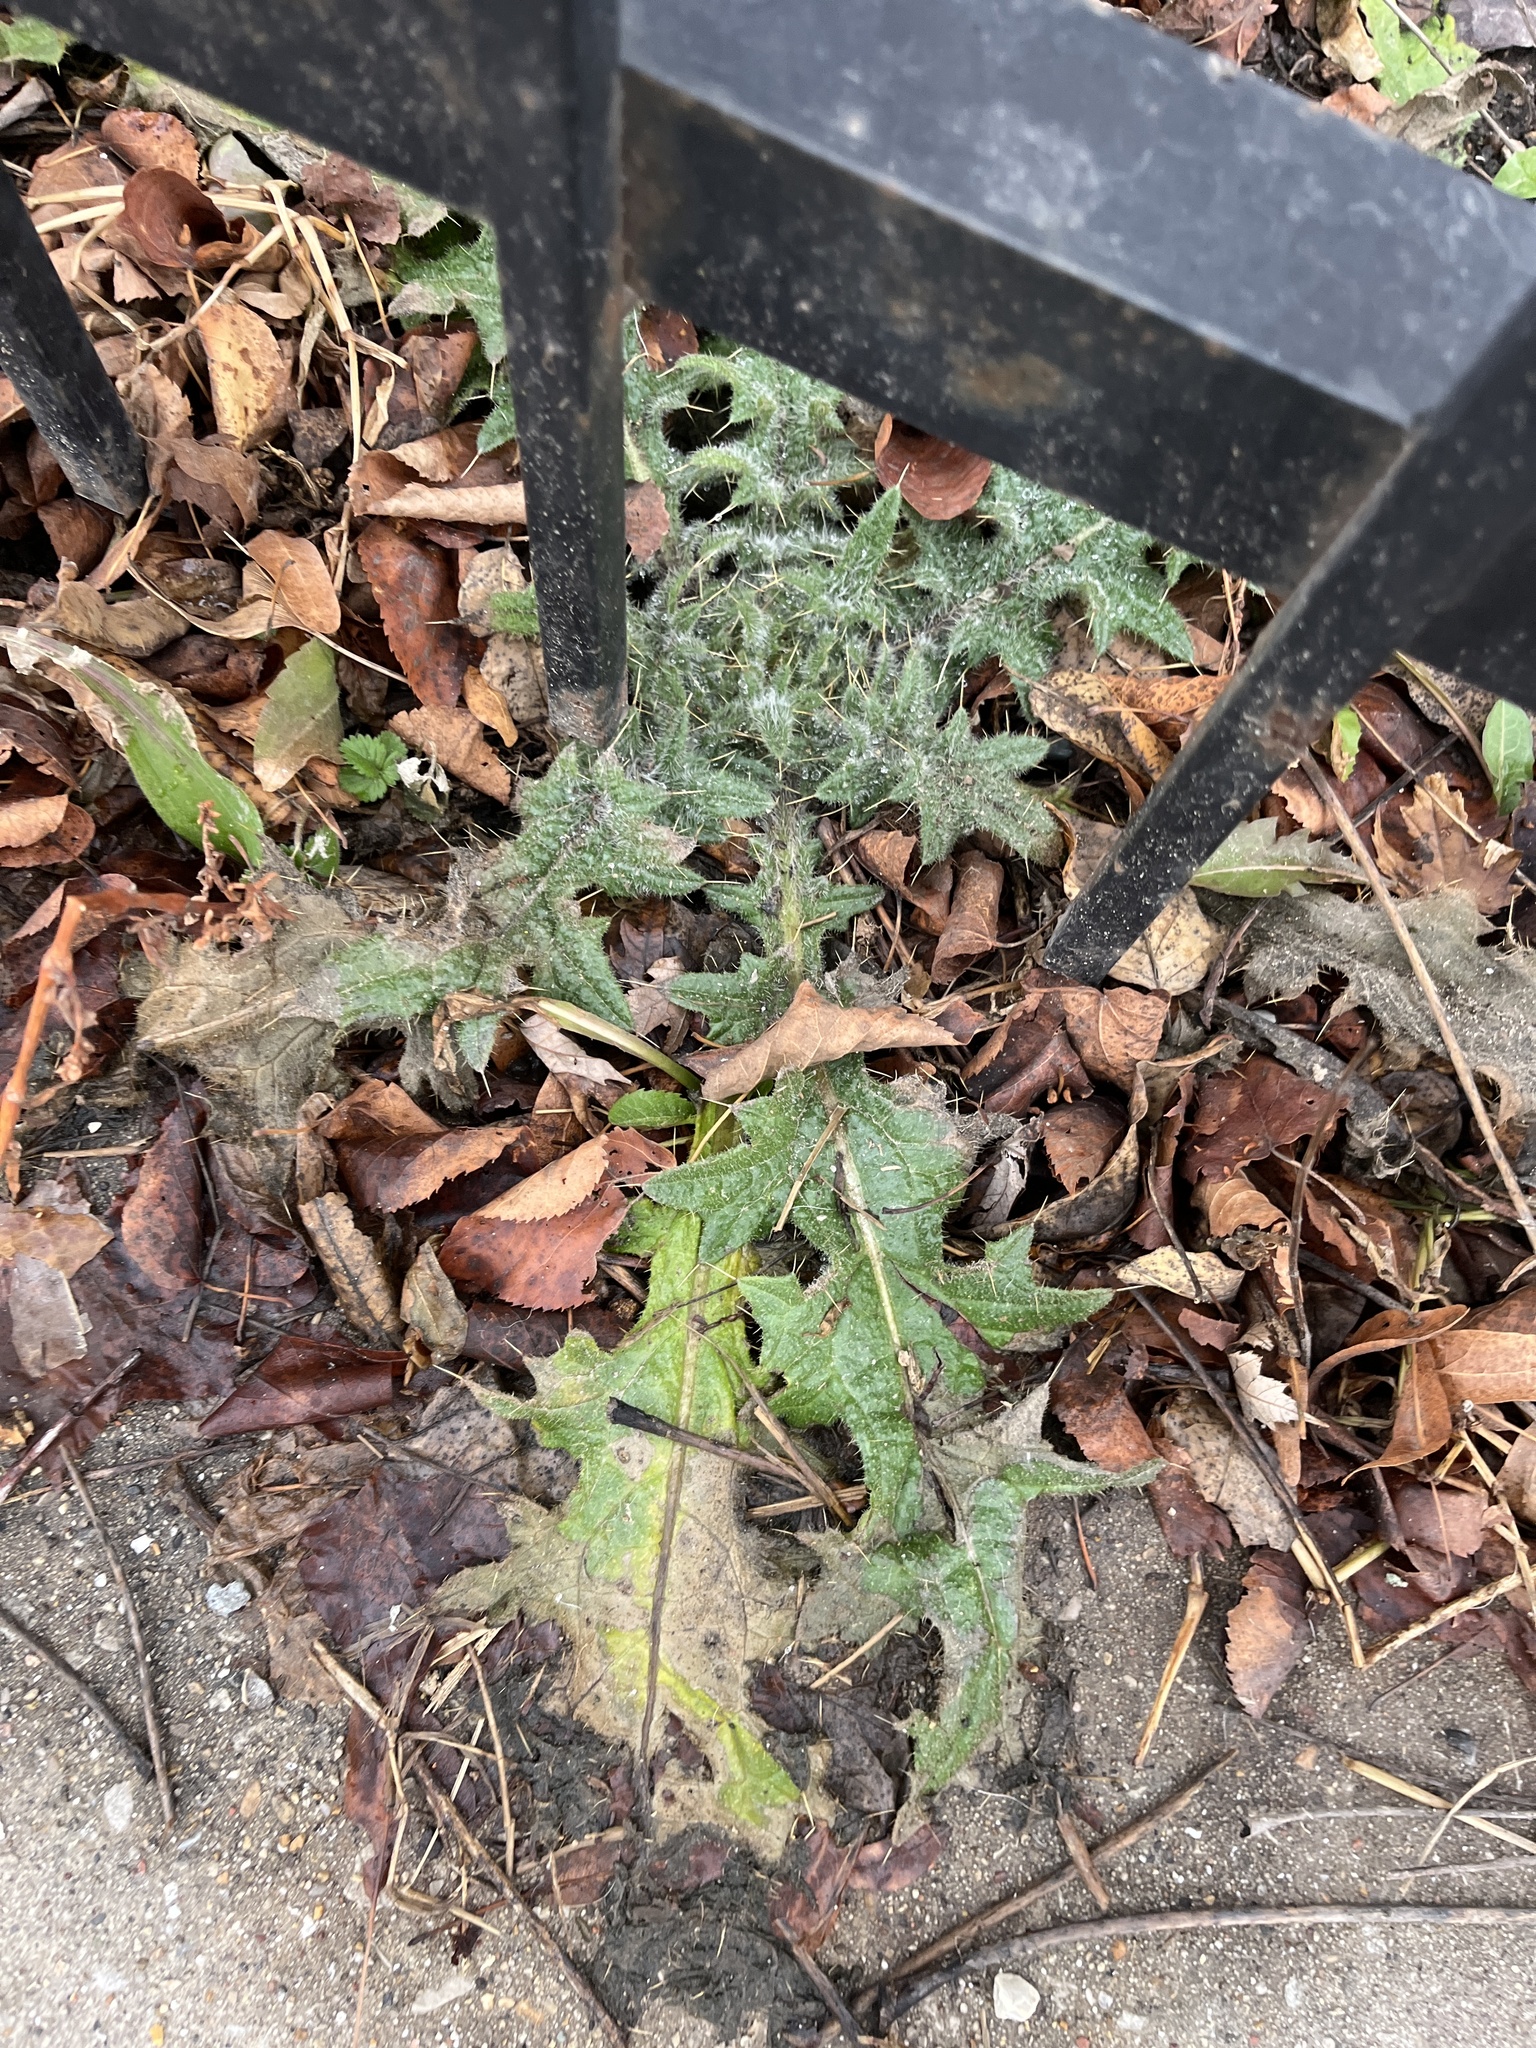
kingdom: Plantae
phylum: Tracheophyta
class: Magnoliopsida
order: Asterales
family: Asteraceae
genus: Cirsium
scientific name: Cirsium vulgare
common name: Bull thistle
